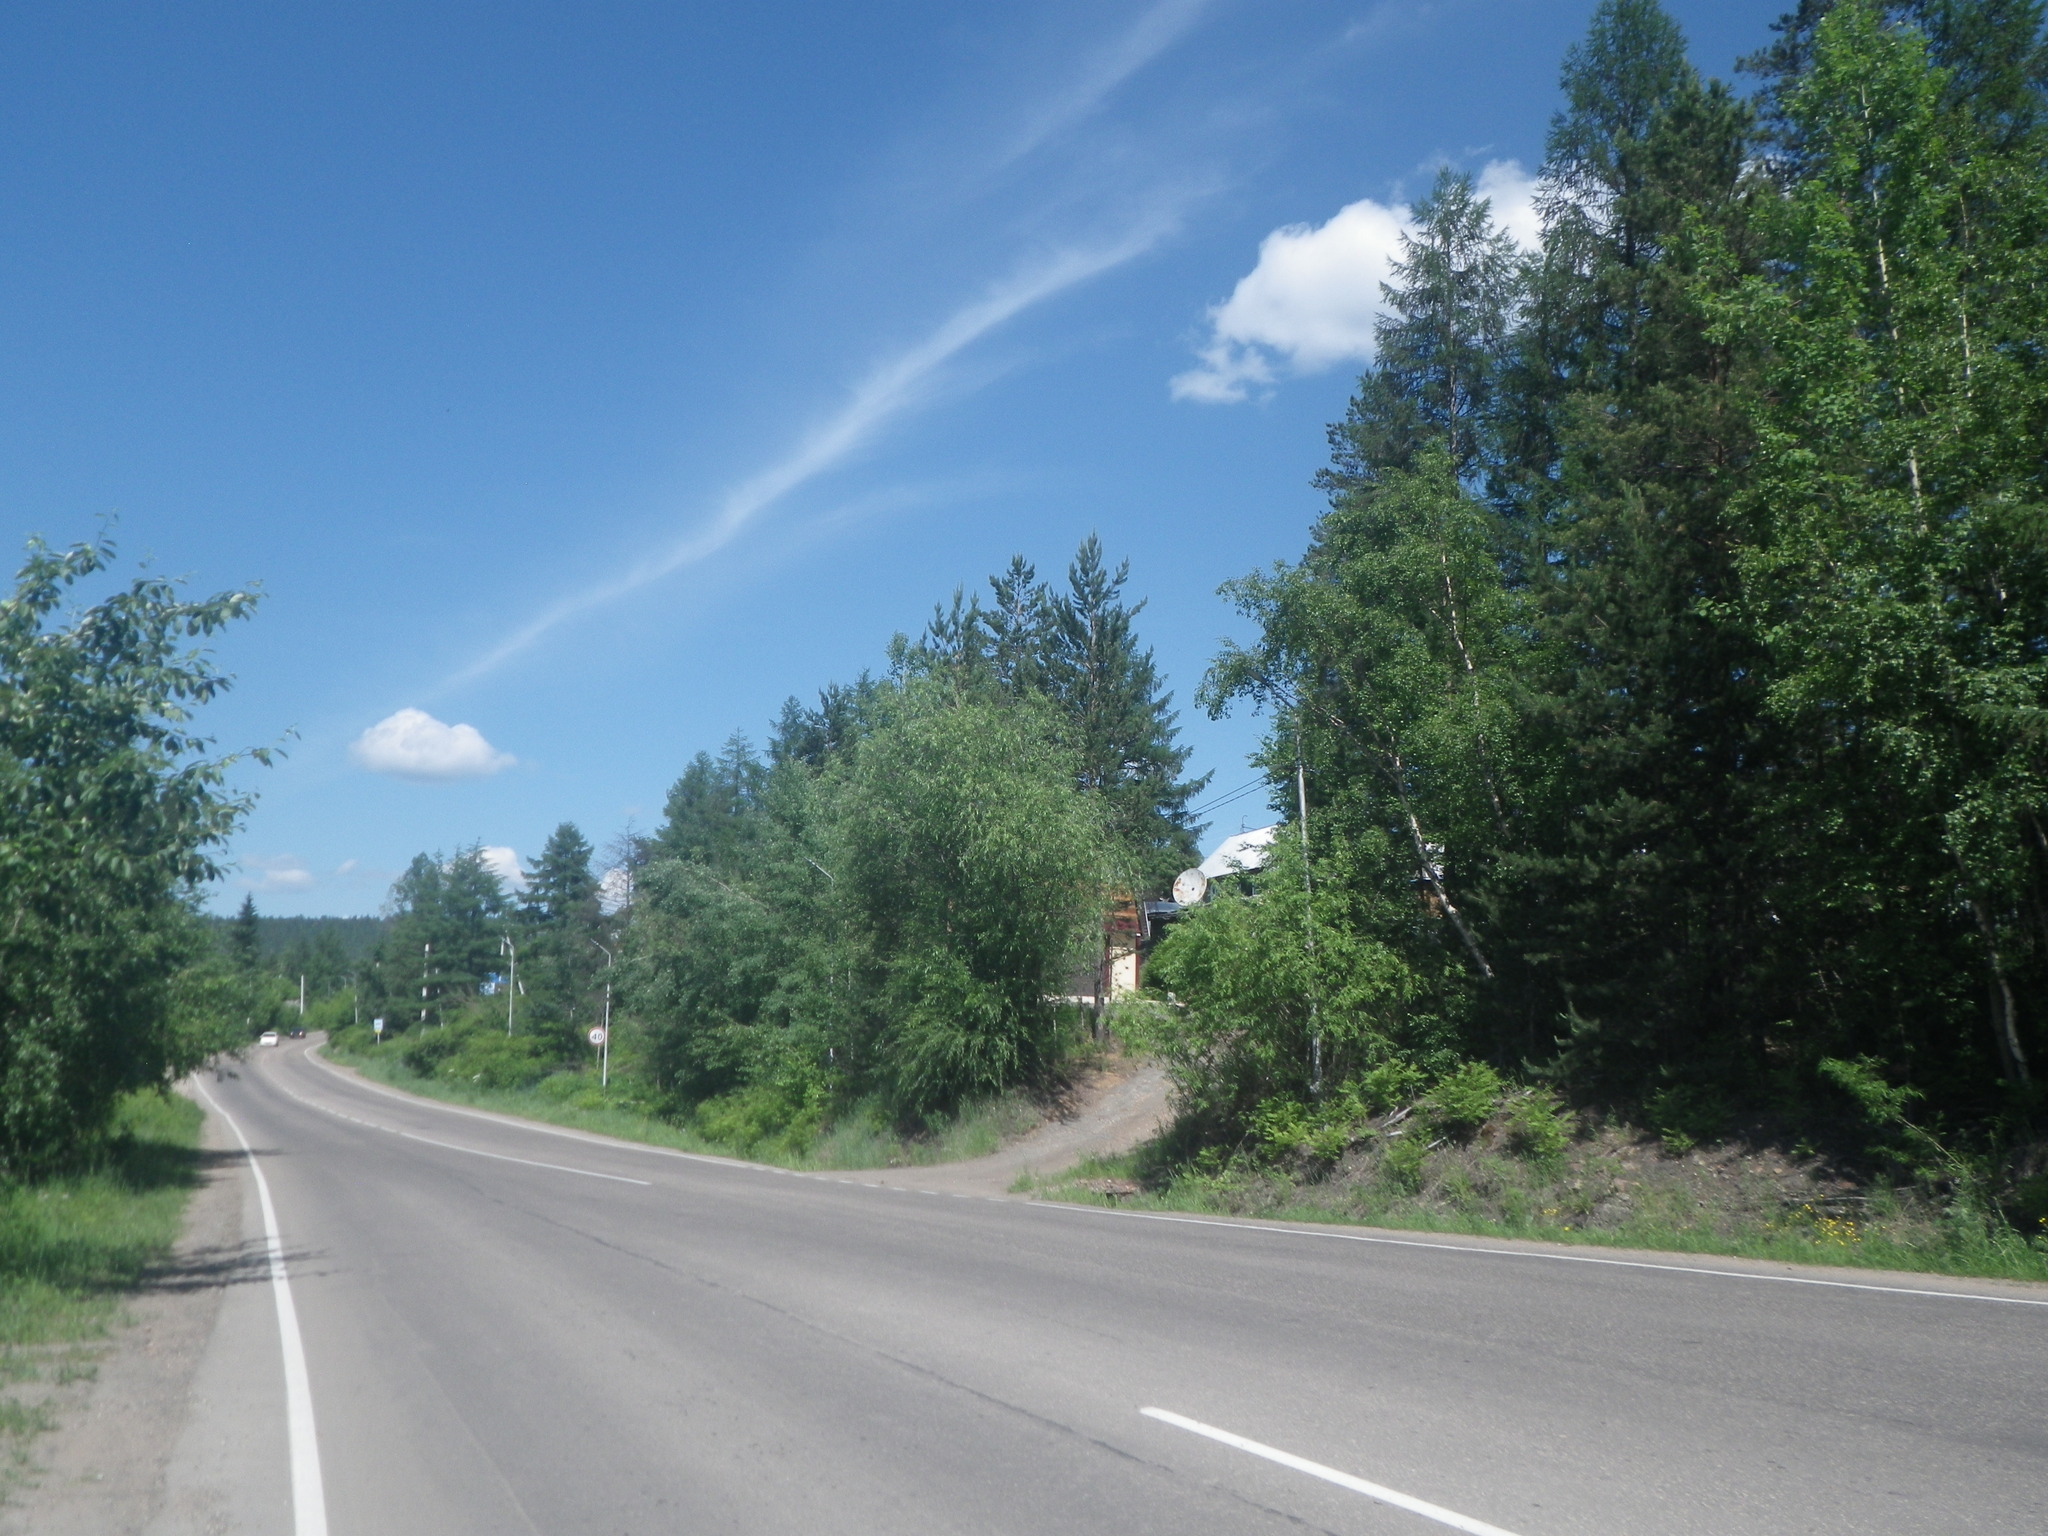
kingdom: Plantae
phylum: Tracheophyta
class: Pinopsida
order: Pinales
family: Pinaceae
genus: Pinus
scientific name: Pinus sylvestris
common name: Scots pine
